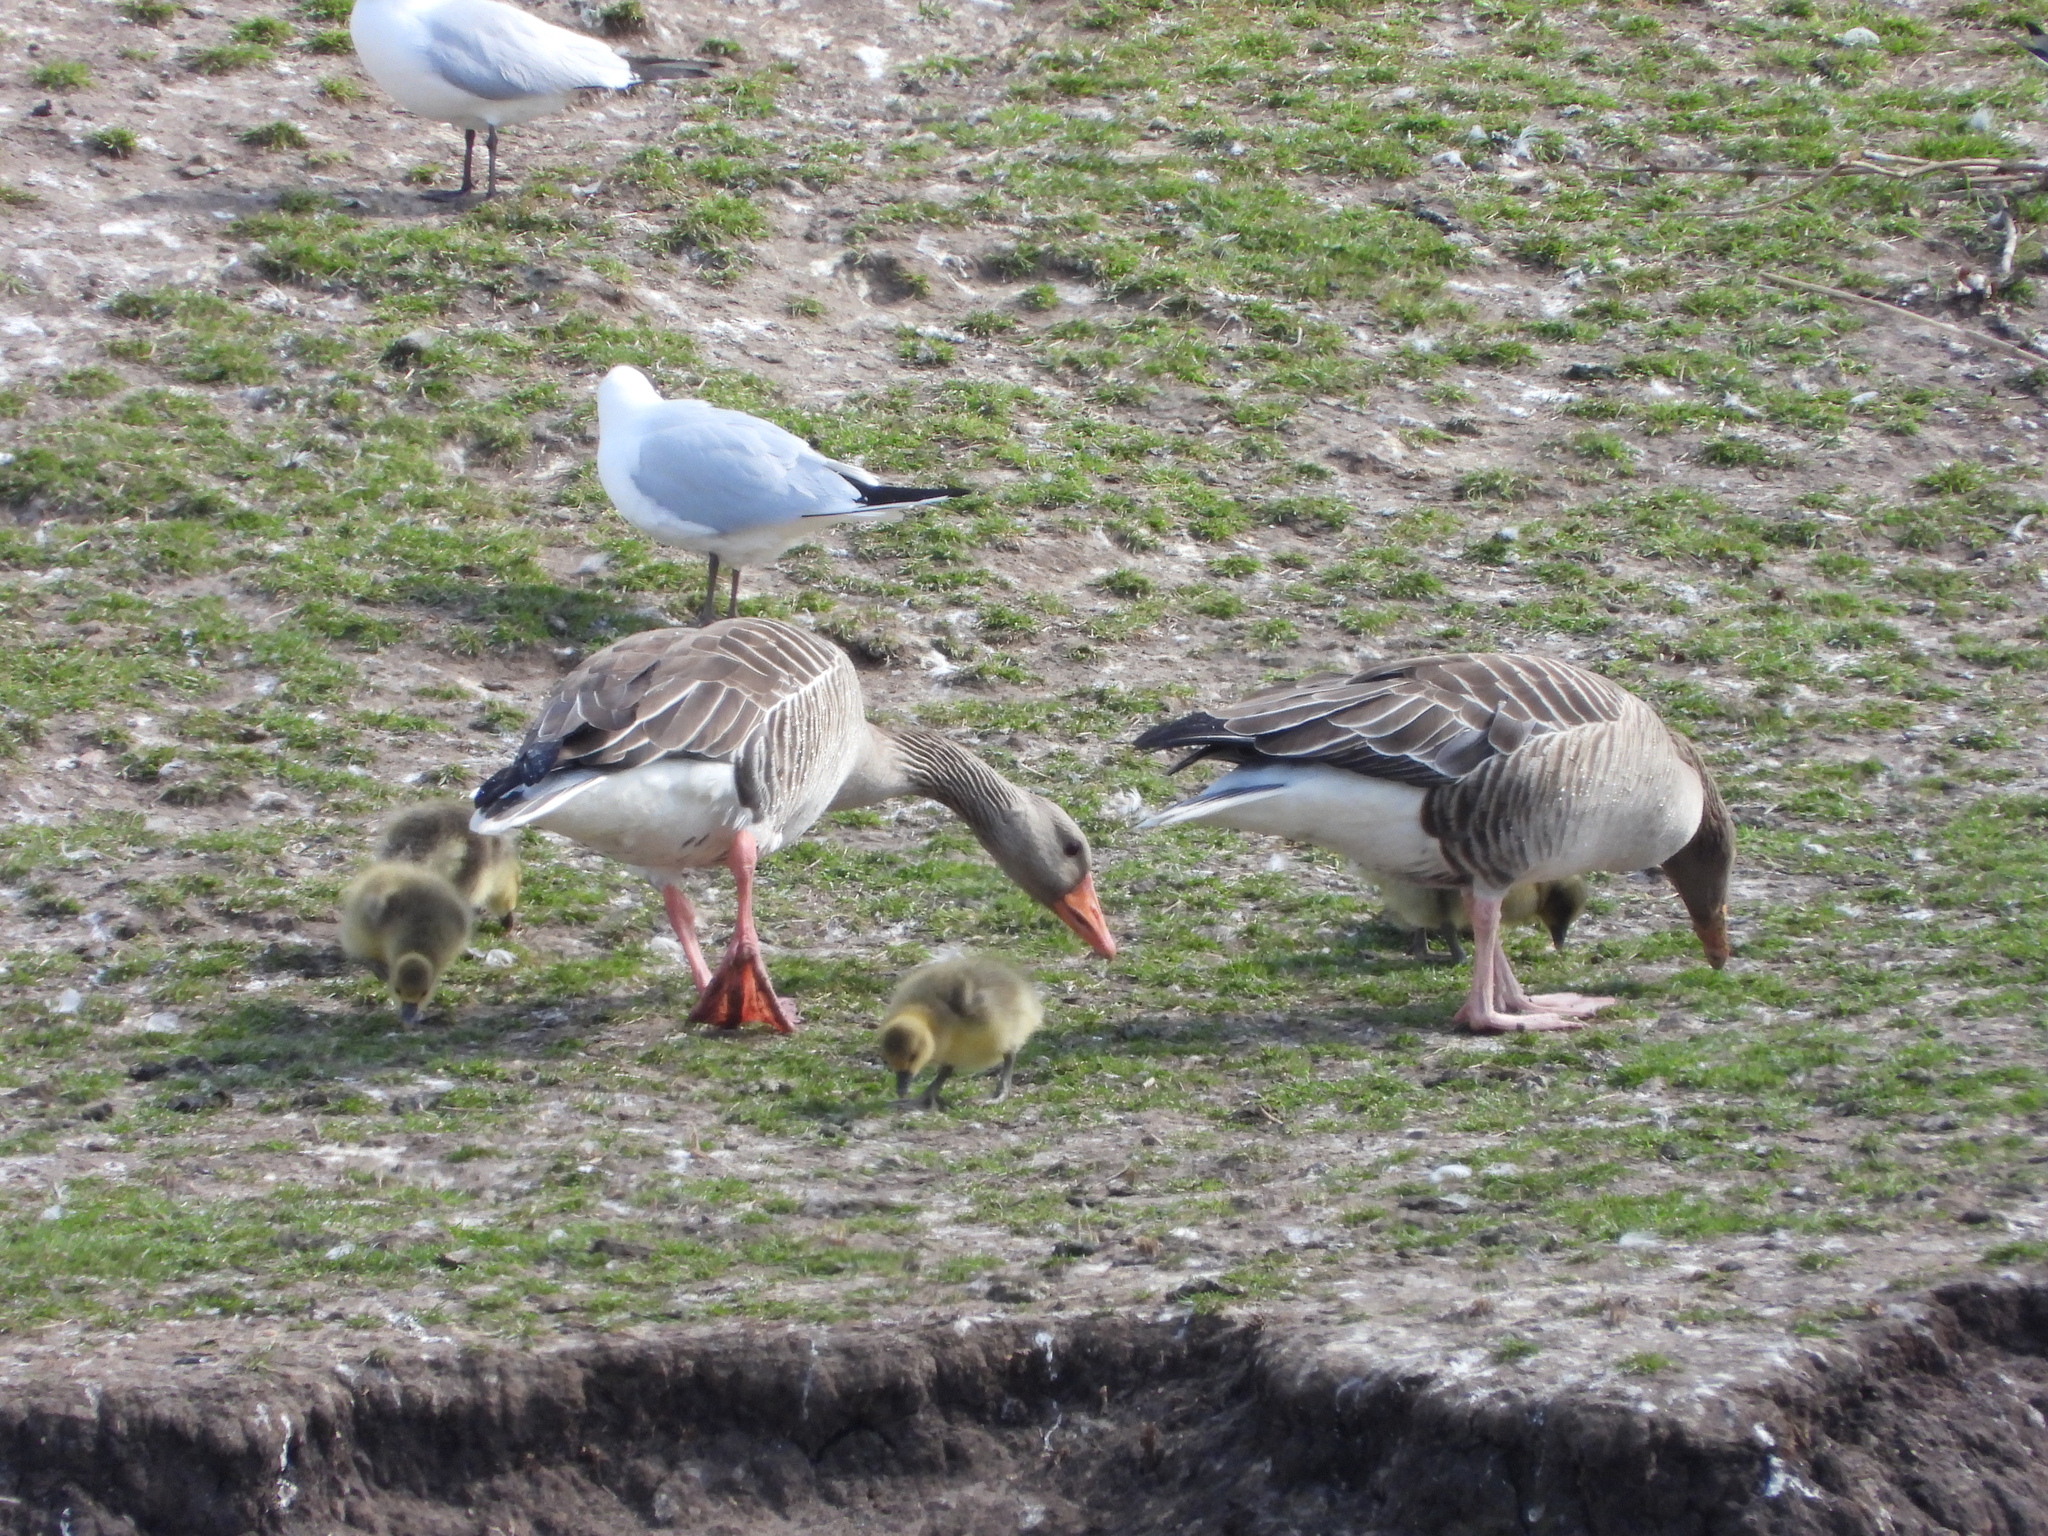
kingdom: Animalia
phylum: Chordata
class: Aves
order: Anseriformes
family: Anatidae
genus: Anser
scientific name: Anser anser
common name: Greylag goose
